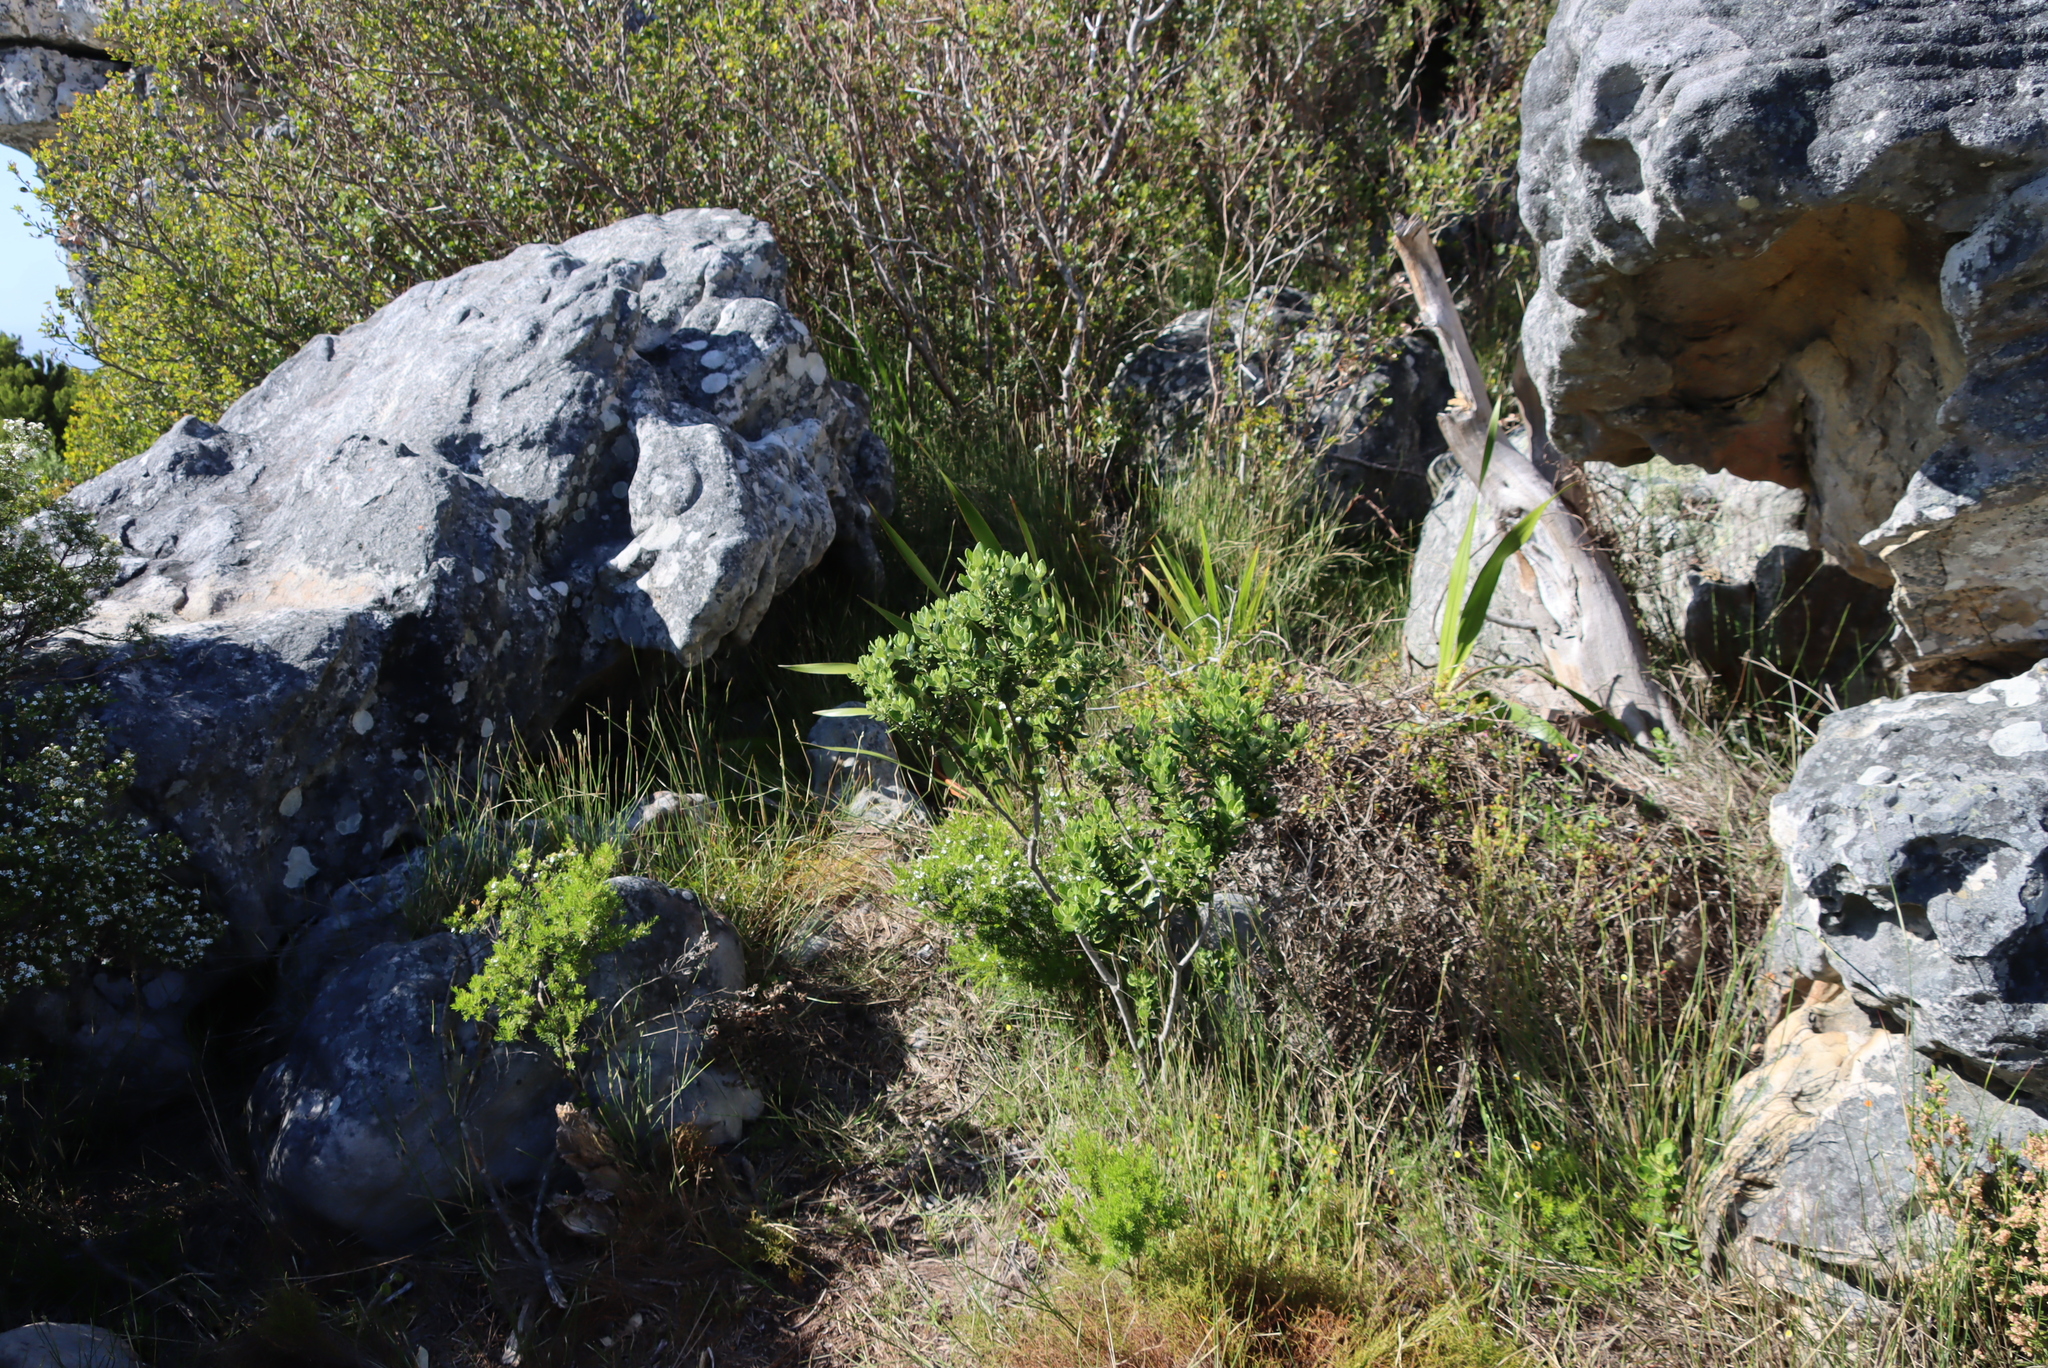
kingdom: Plantae
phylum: Tracheophyta
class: Magnoliopsida
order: Rosales
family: Rhamnaceae
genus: Phylica
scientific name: Phylica buxifolia
